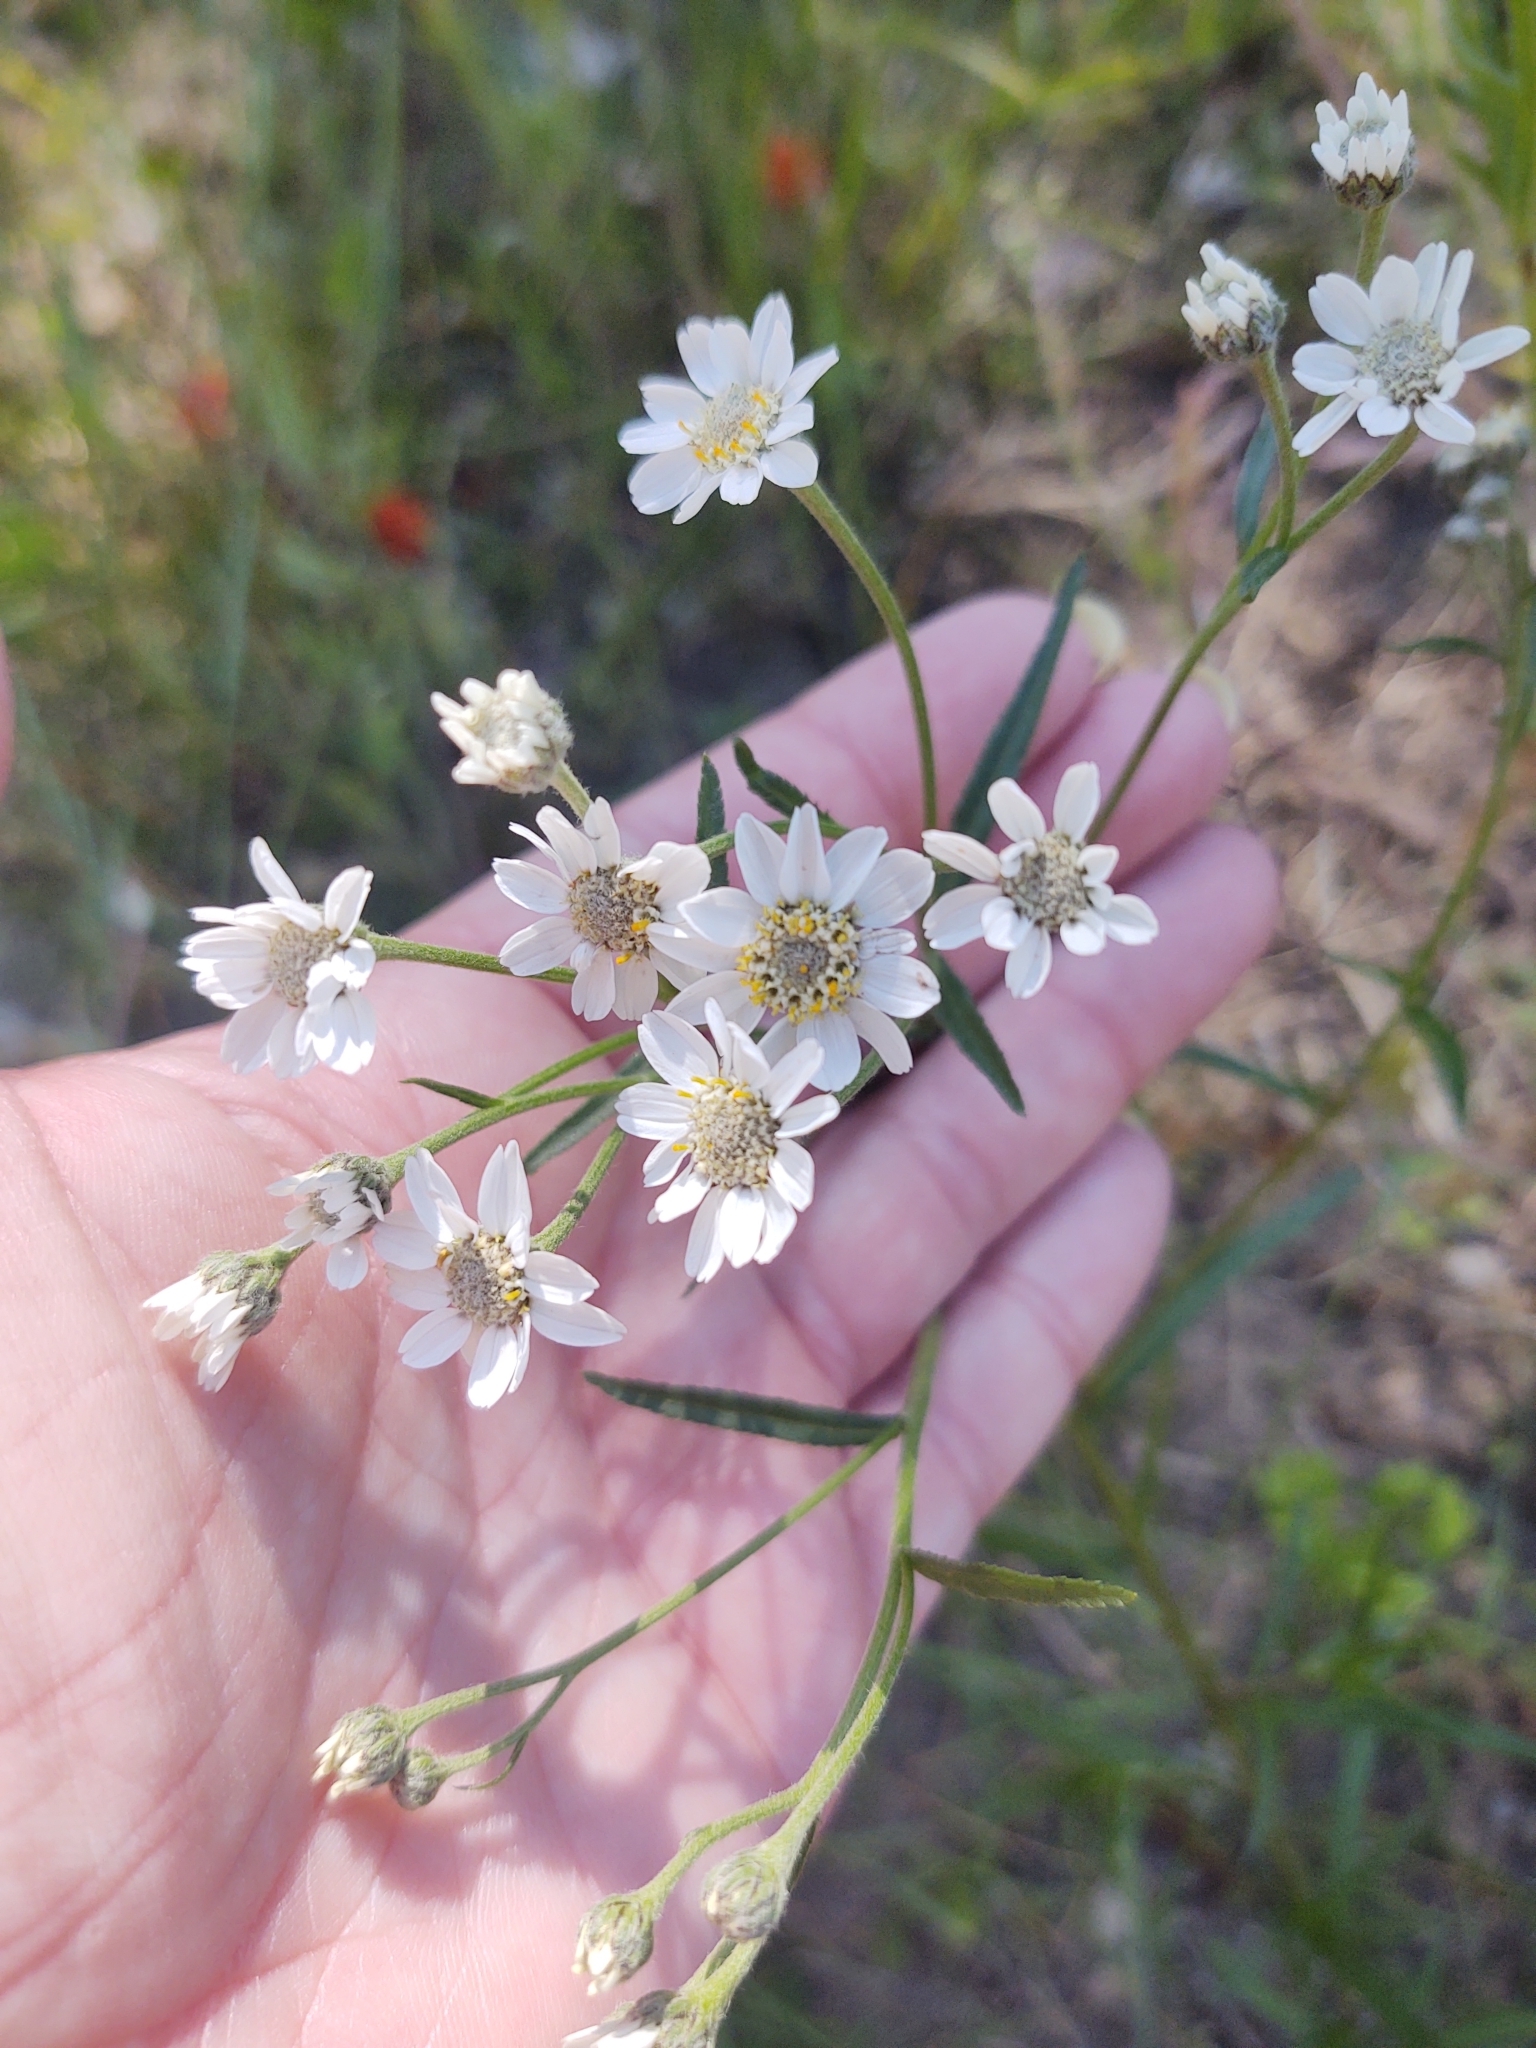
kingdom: Plantae
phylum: Tracheophyta
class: Magnoliopsida
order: Asterales
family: Asteraceae
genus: Achillea
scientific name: Achillea ptarmica
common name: Sneezeweed
